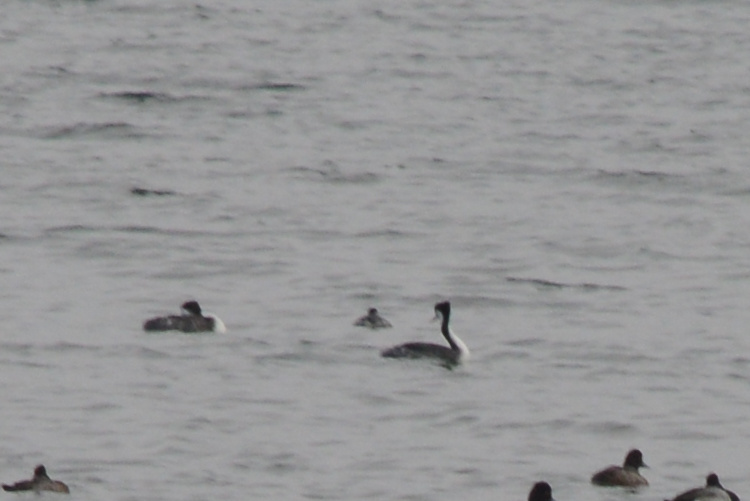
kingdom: Animalia
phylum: Chordata
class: Aves
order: Podicipediformes
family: Podicipedidae
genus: Aechmophorus
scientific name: Aechmophorus occidentalis
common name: Western grebe
